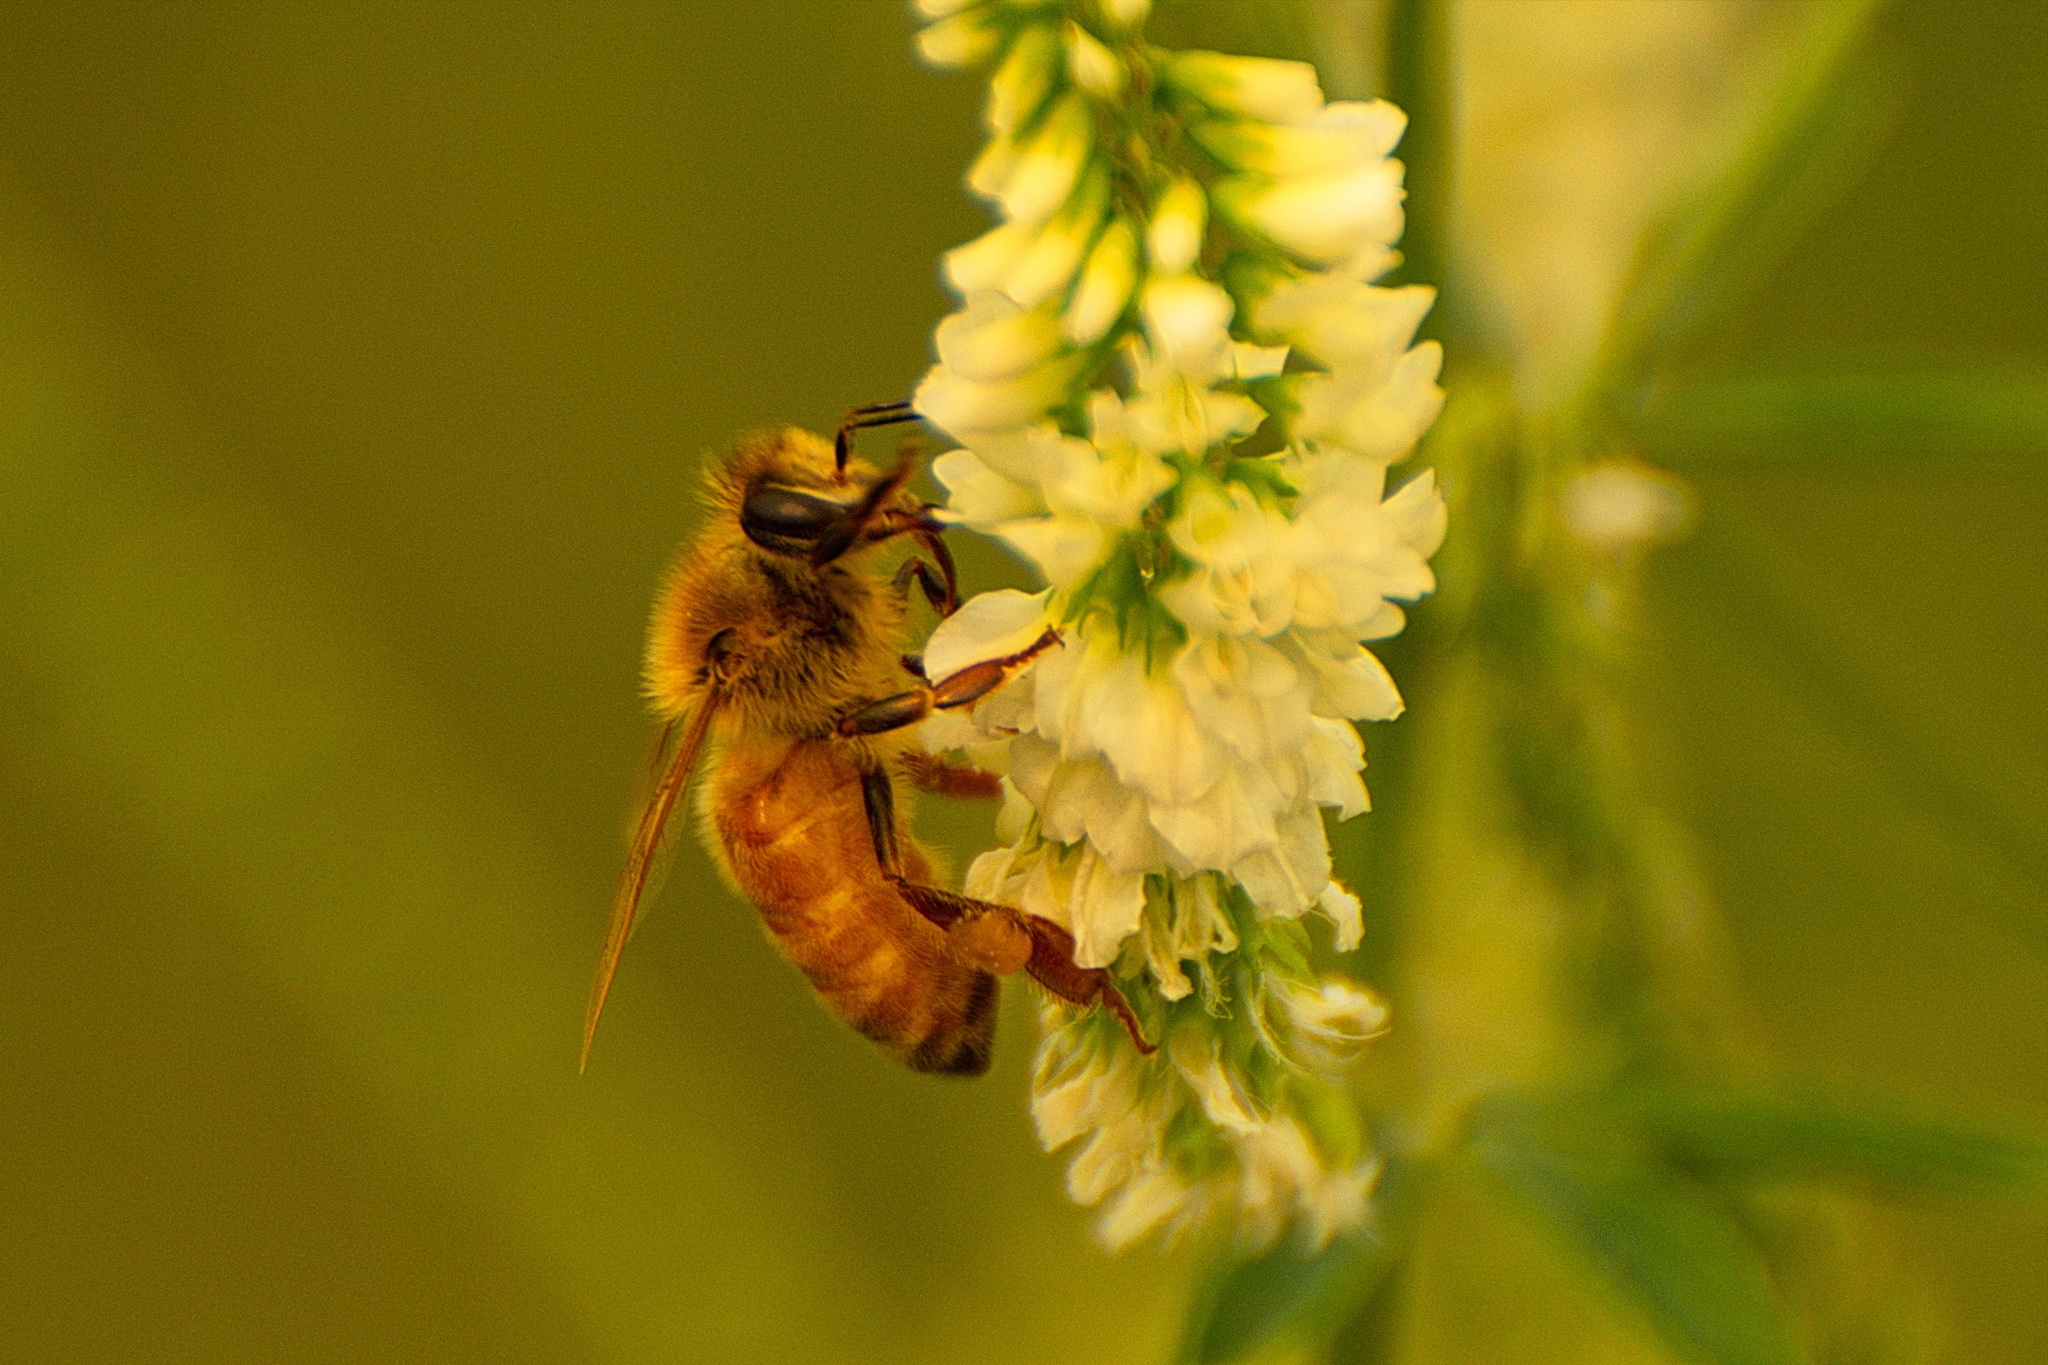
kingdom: Animalia
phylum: Arthropoda
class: Insecta
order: Hymenoptera
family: Apidae
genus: Apis
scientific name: Apis mellifera
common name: Honey bee
